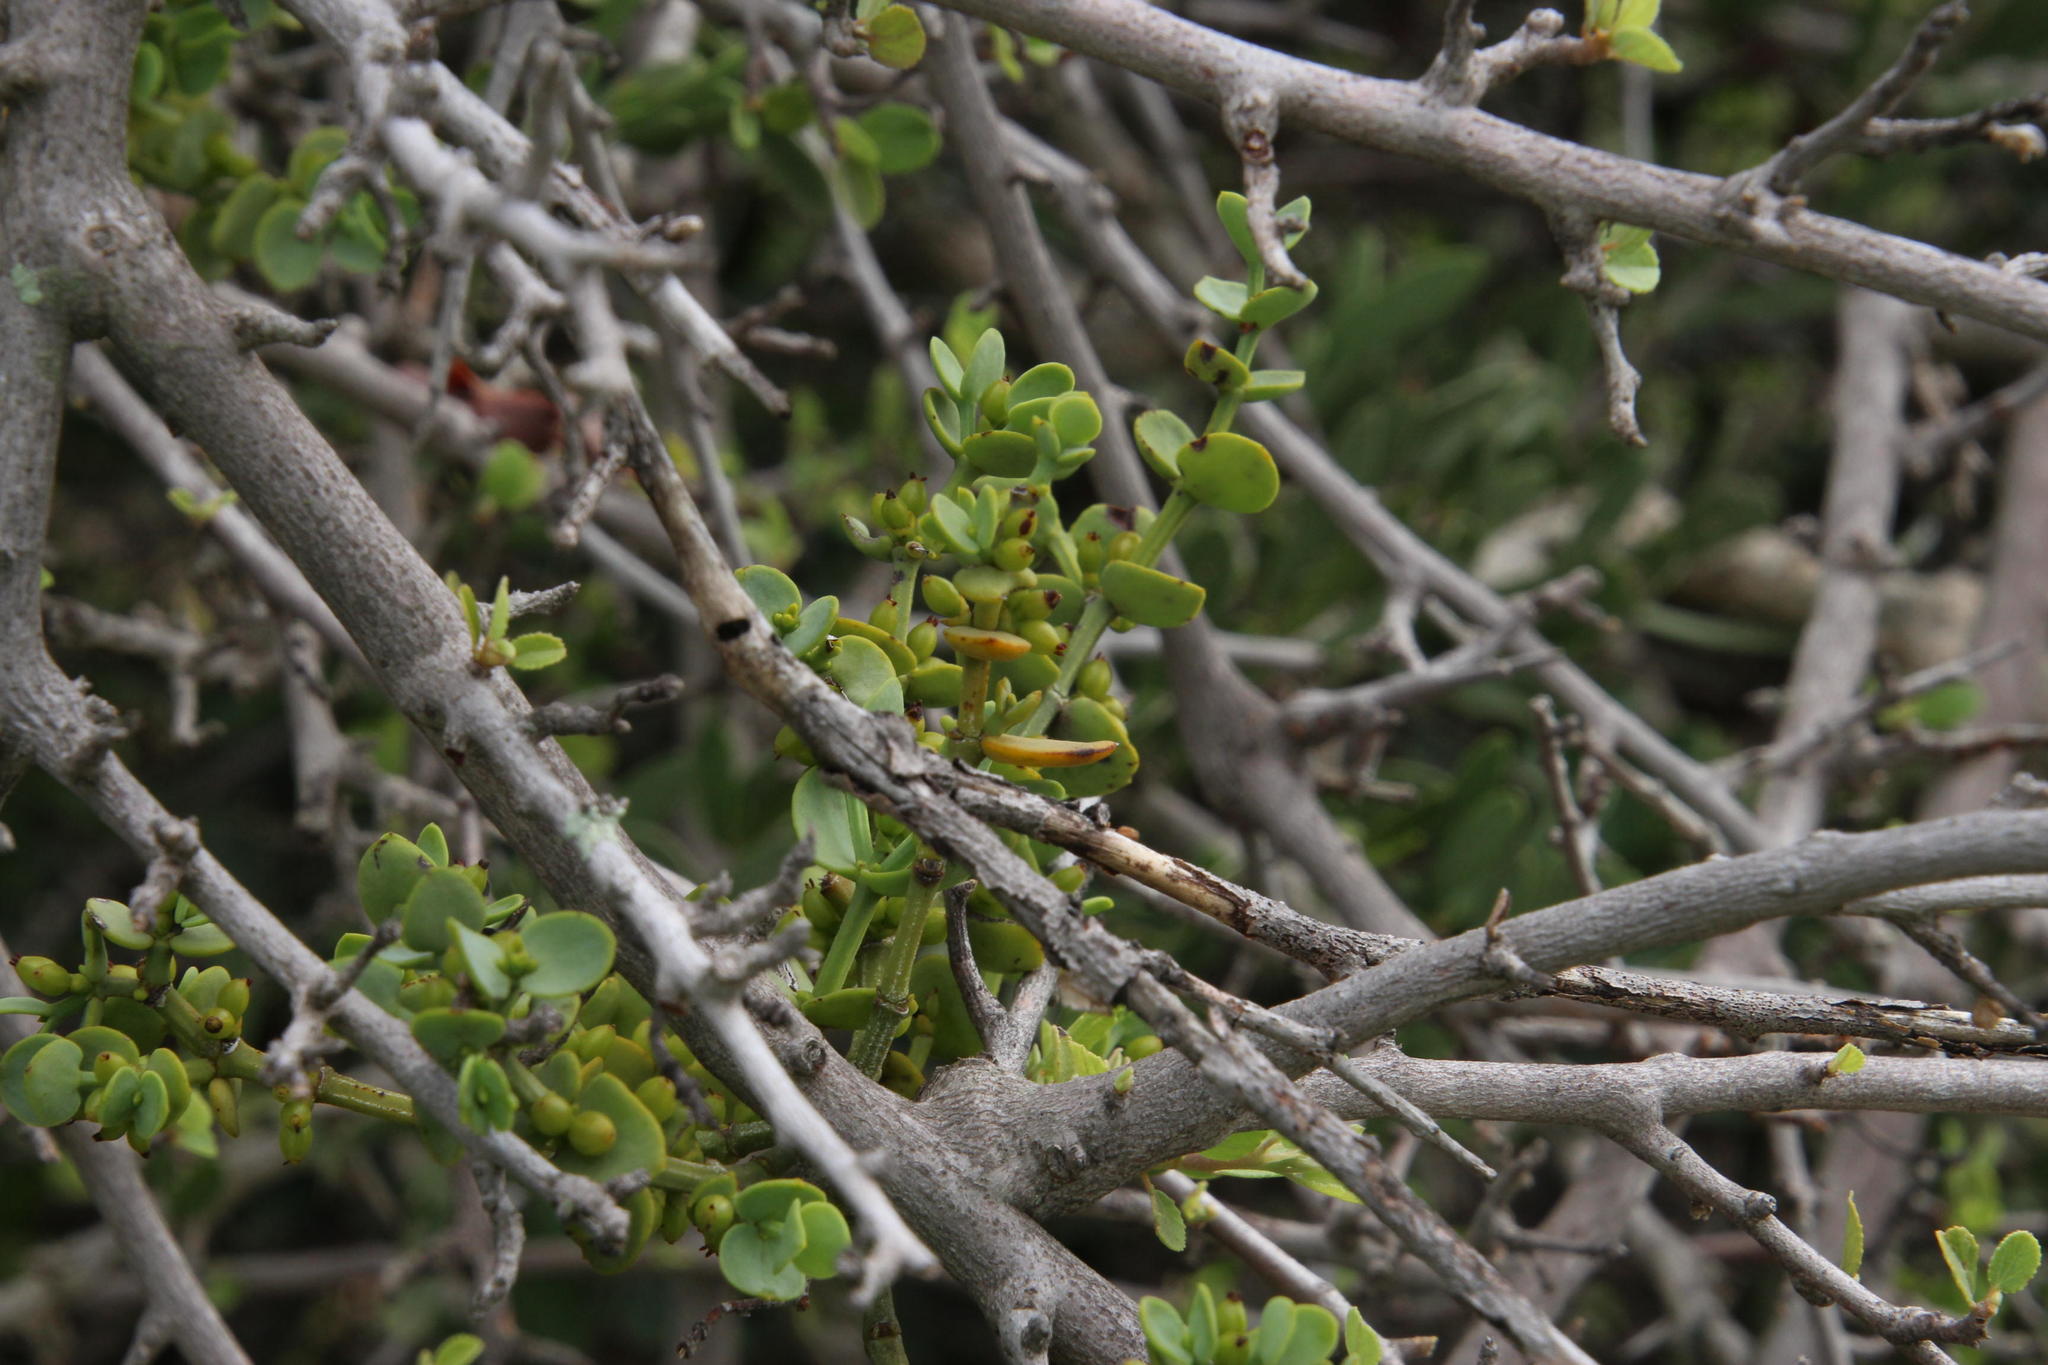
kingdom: Plantae
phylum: Tracheophyta
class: Magnoliopsida
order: Santalales
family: Viscaceae
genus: Viscum
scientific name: Viscum rotundifolium
